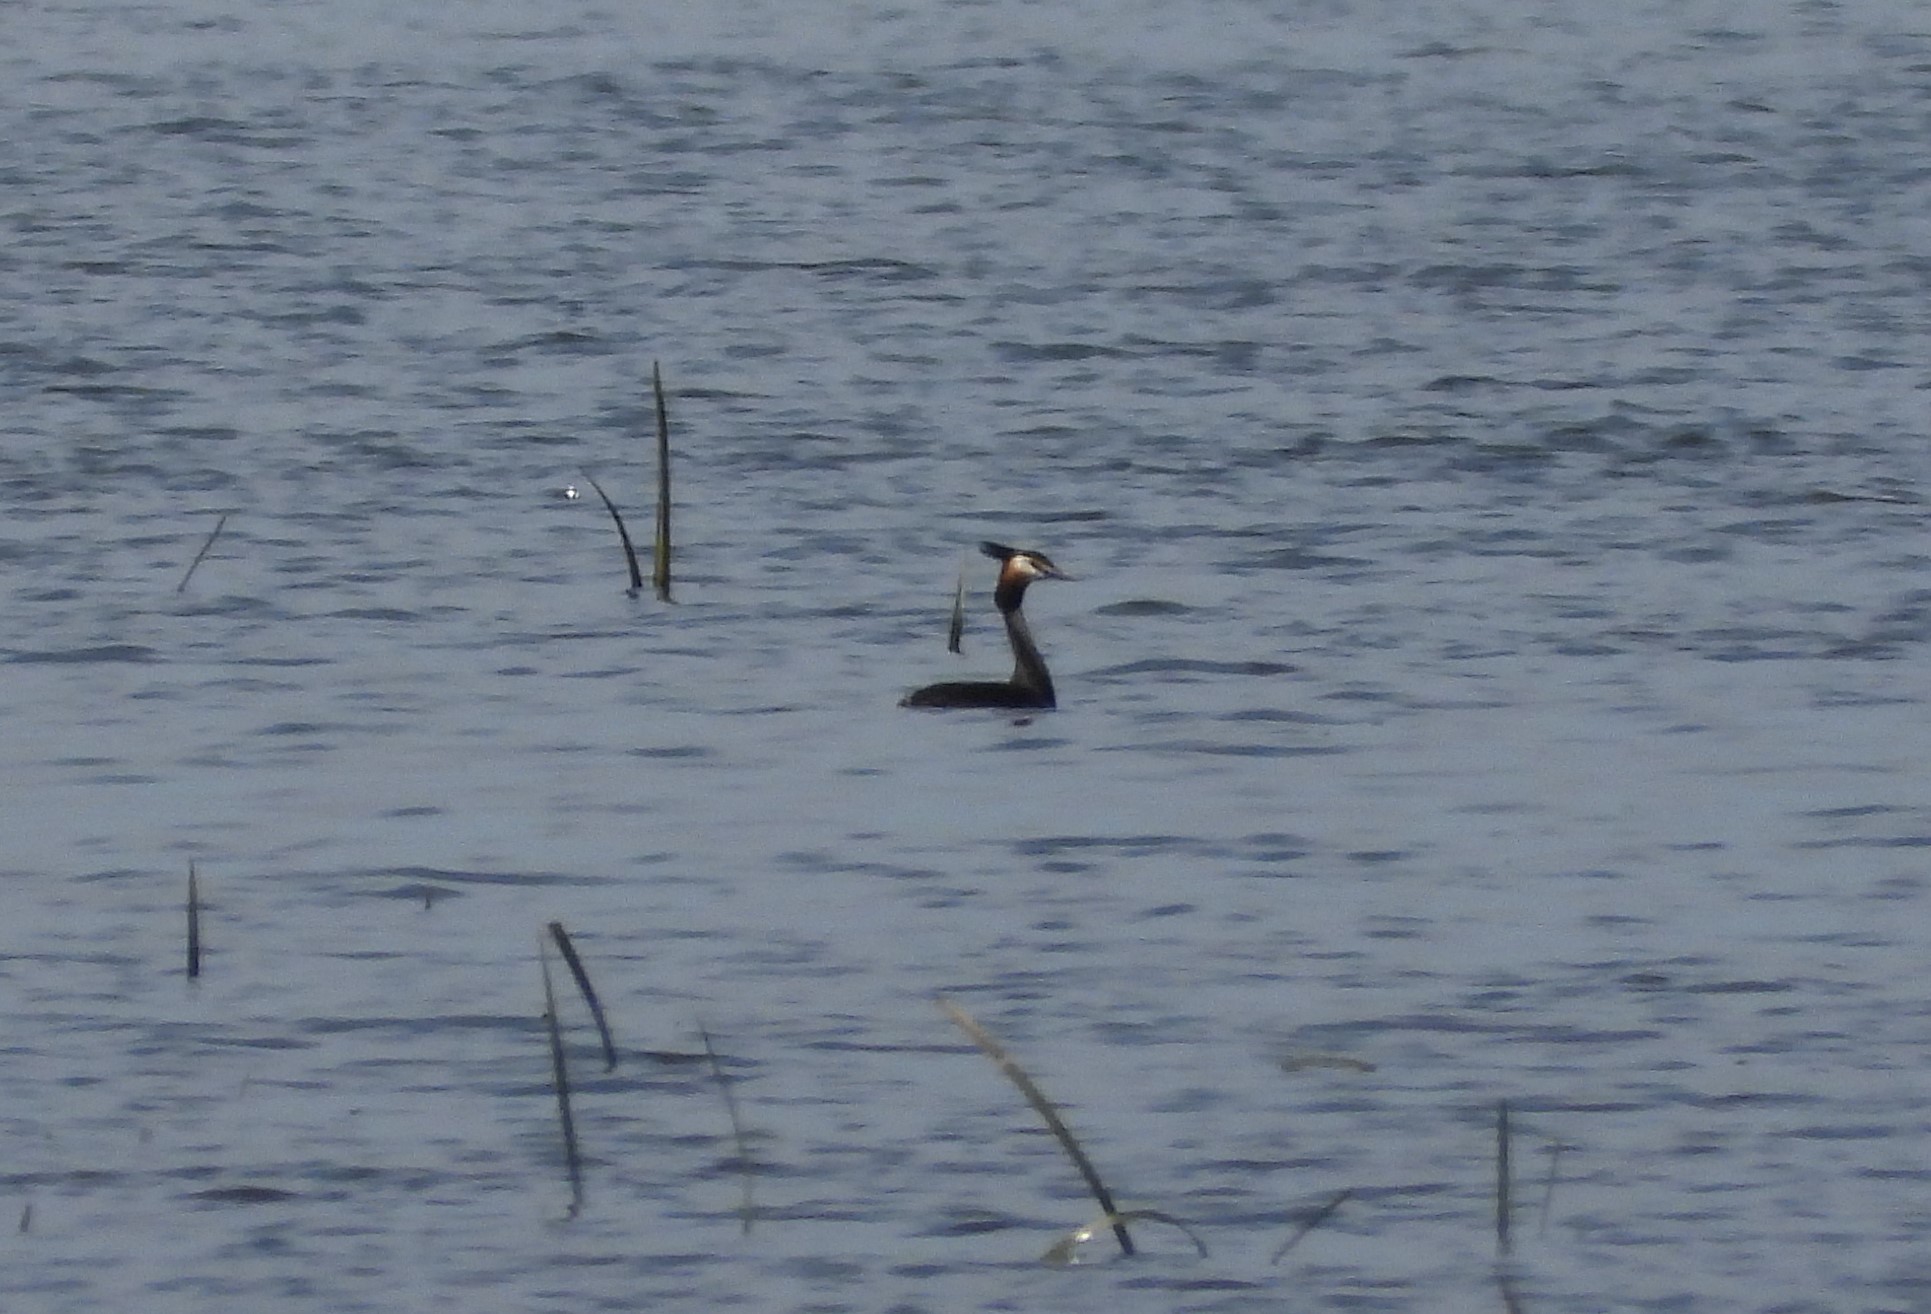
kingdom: Animalia
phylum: Chordata
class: Aves
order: Podicipediformes
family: Podicipedidae
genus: Podiceps
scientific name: Podiceps cristatus
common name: Great crested grebe
